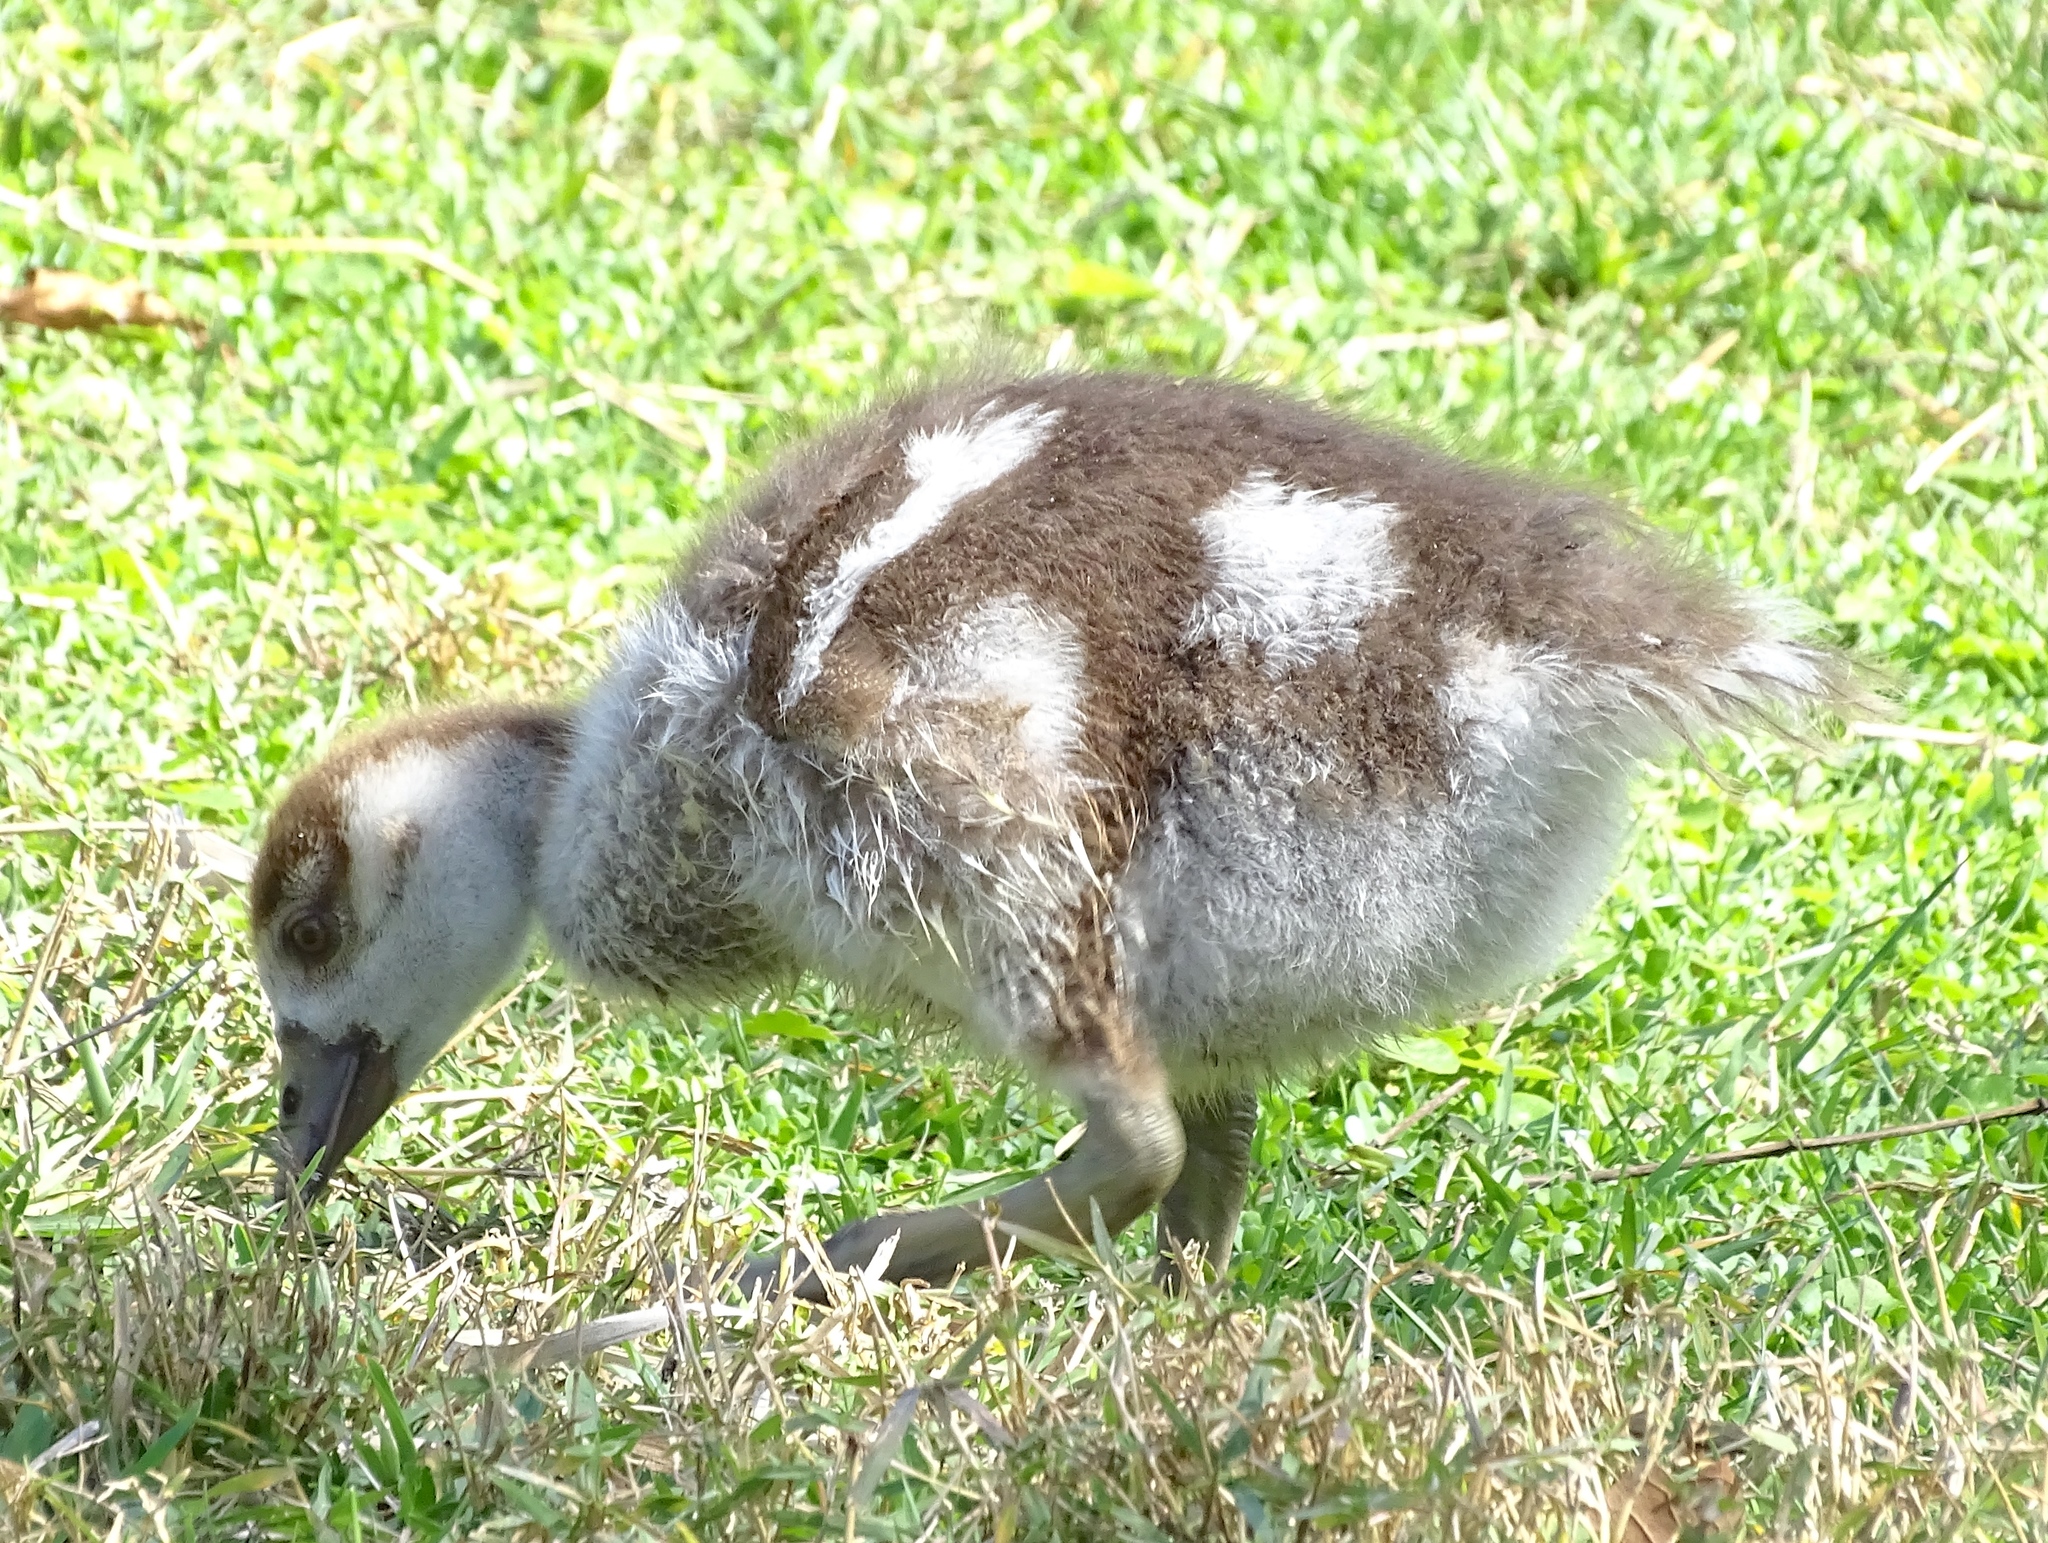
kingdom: Animalia
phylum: Chordata
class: Aves
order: Anseriformes
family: Anatidae
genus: Alopochen
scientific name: Alopochen aegyptiaca
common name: Egyptian goose
